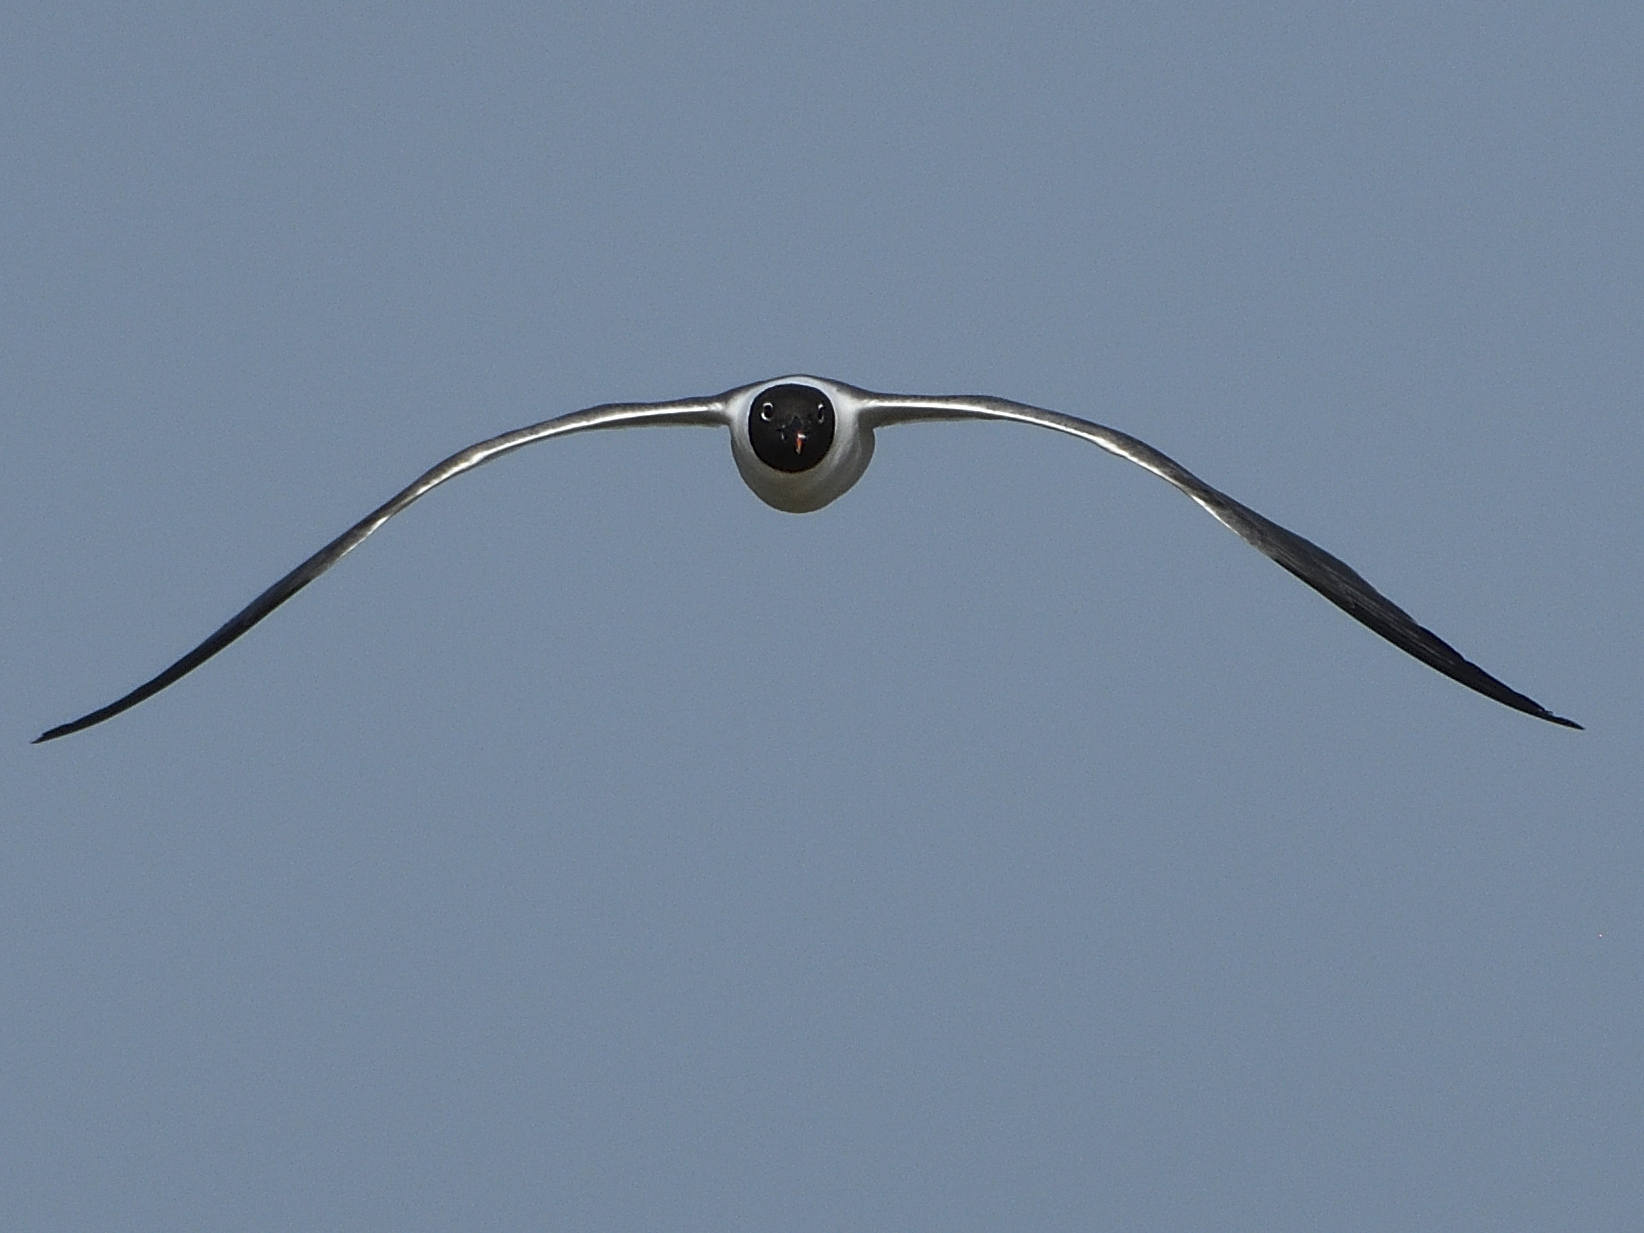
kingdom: Animalia
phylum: Chordata
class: Aves
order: Charadriiformes
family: Laridae
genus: Leucophaeus
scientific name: Leucophaeus atricilla
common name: Laughing gull
